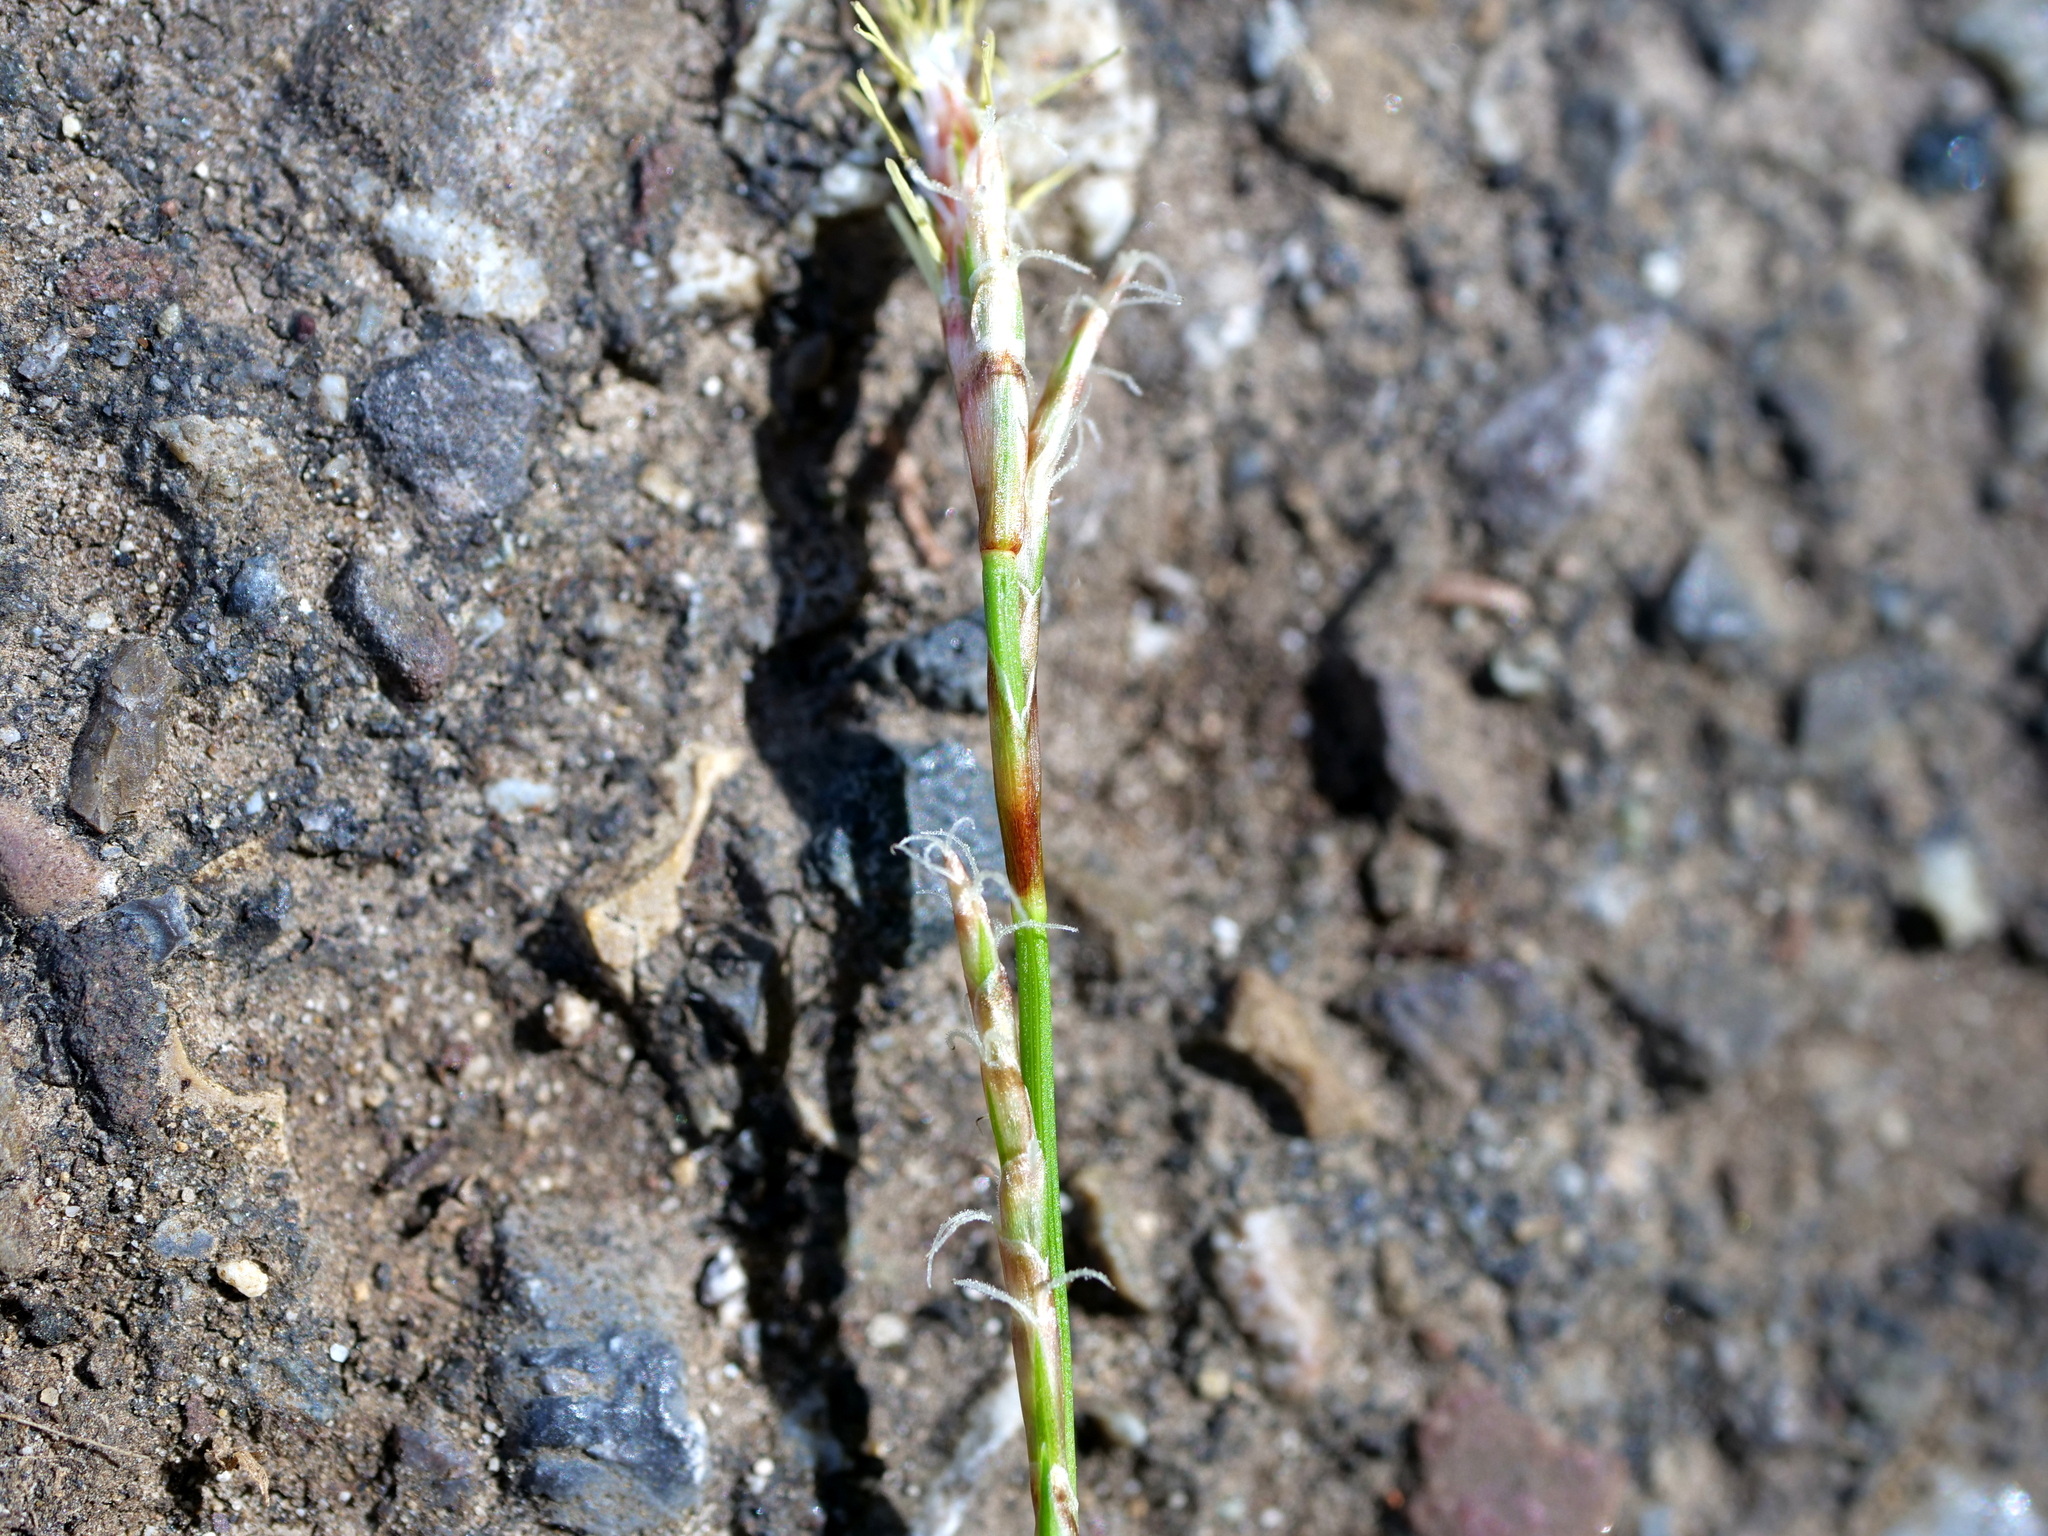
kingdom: Plantae
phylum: Tracheophyta
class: Liliopsida
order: Poales
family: Cyperaceae
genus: Carex
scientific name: Carex digitata
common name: Fingered sedge
